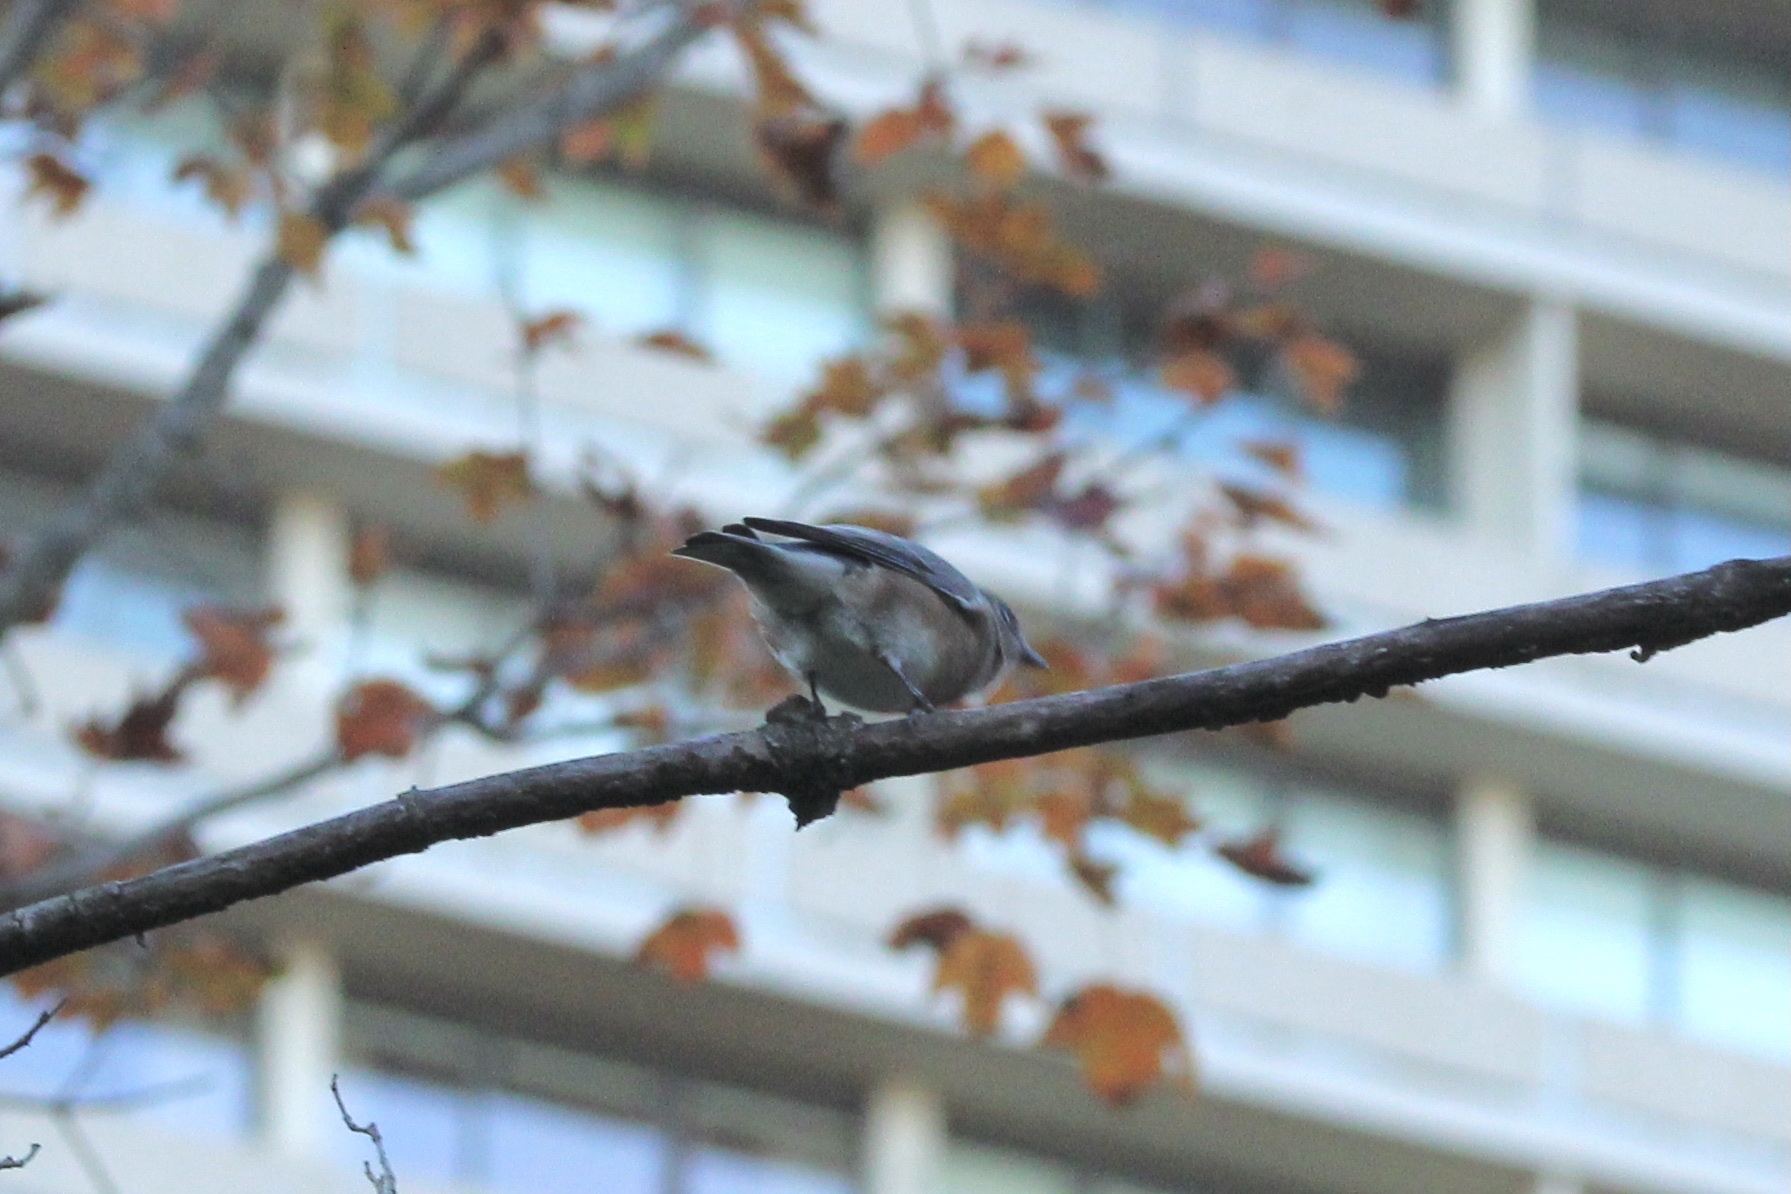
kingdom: Animalia
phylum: Chordata
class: Aves
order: Passeriformes
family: Turdidae
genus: Sialia
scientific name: Sialia sialis
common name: Eastern bluebird
